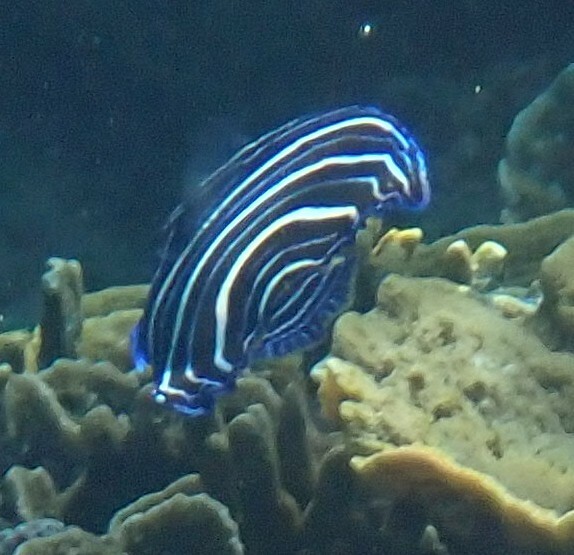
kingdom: Animalia
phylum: Chordata
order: Perciformes
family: Pomacanthidae
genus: Pomacanthus
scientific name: Pomacanthus semicirculatus
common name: Semicircle angelfish
